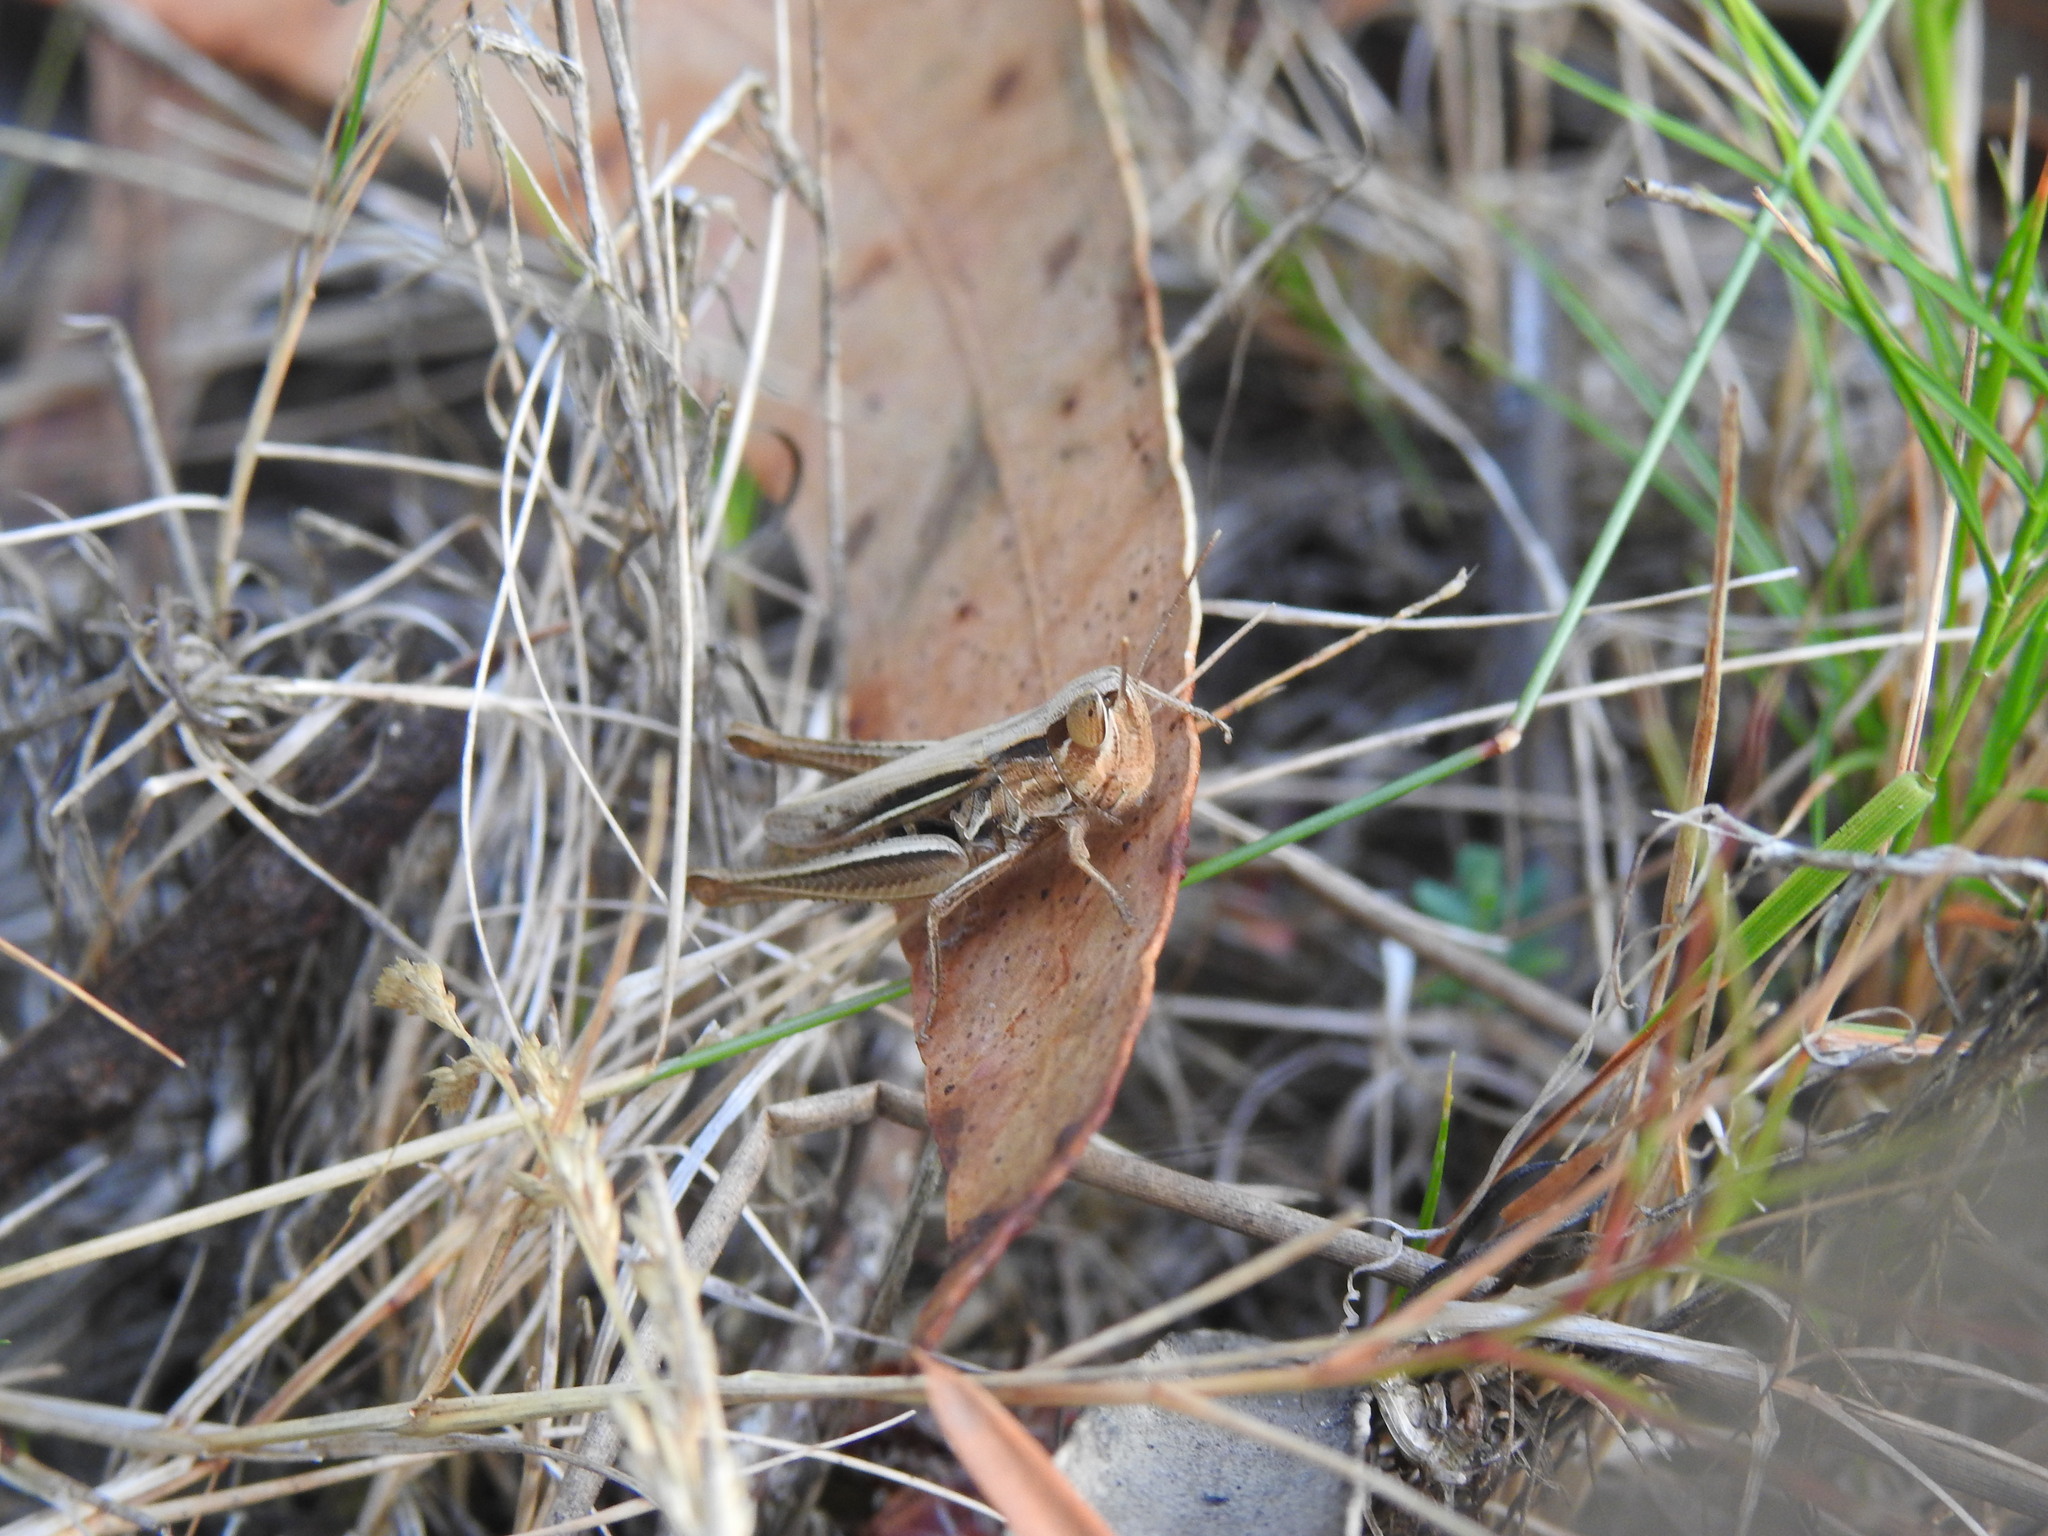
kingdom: Animalia
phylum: Arthropoda
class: Insecta
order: Orthoptera
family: Acrididae
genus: Euchorthippus
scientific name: Euchorthippus elegantulus
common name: Elegant straw grasshopper
